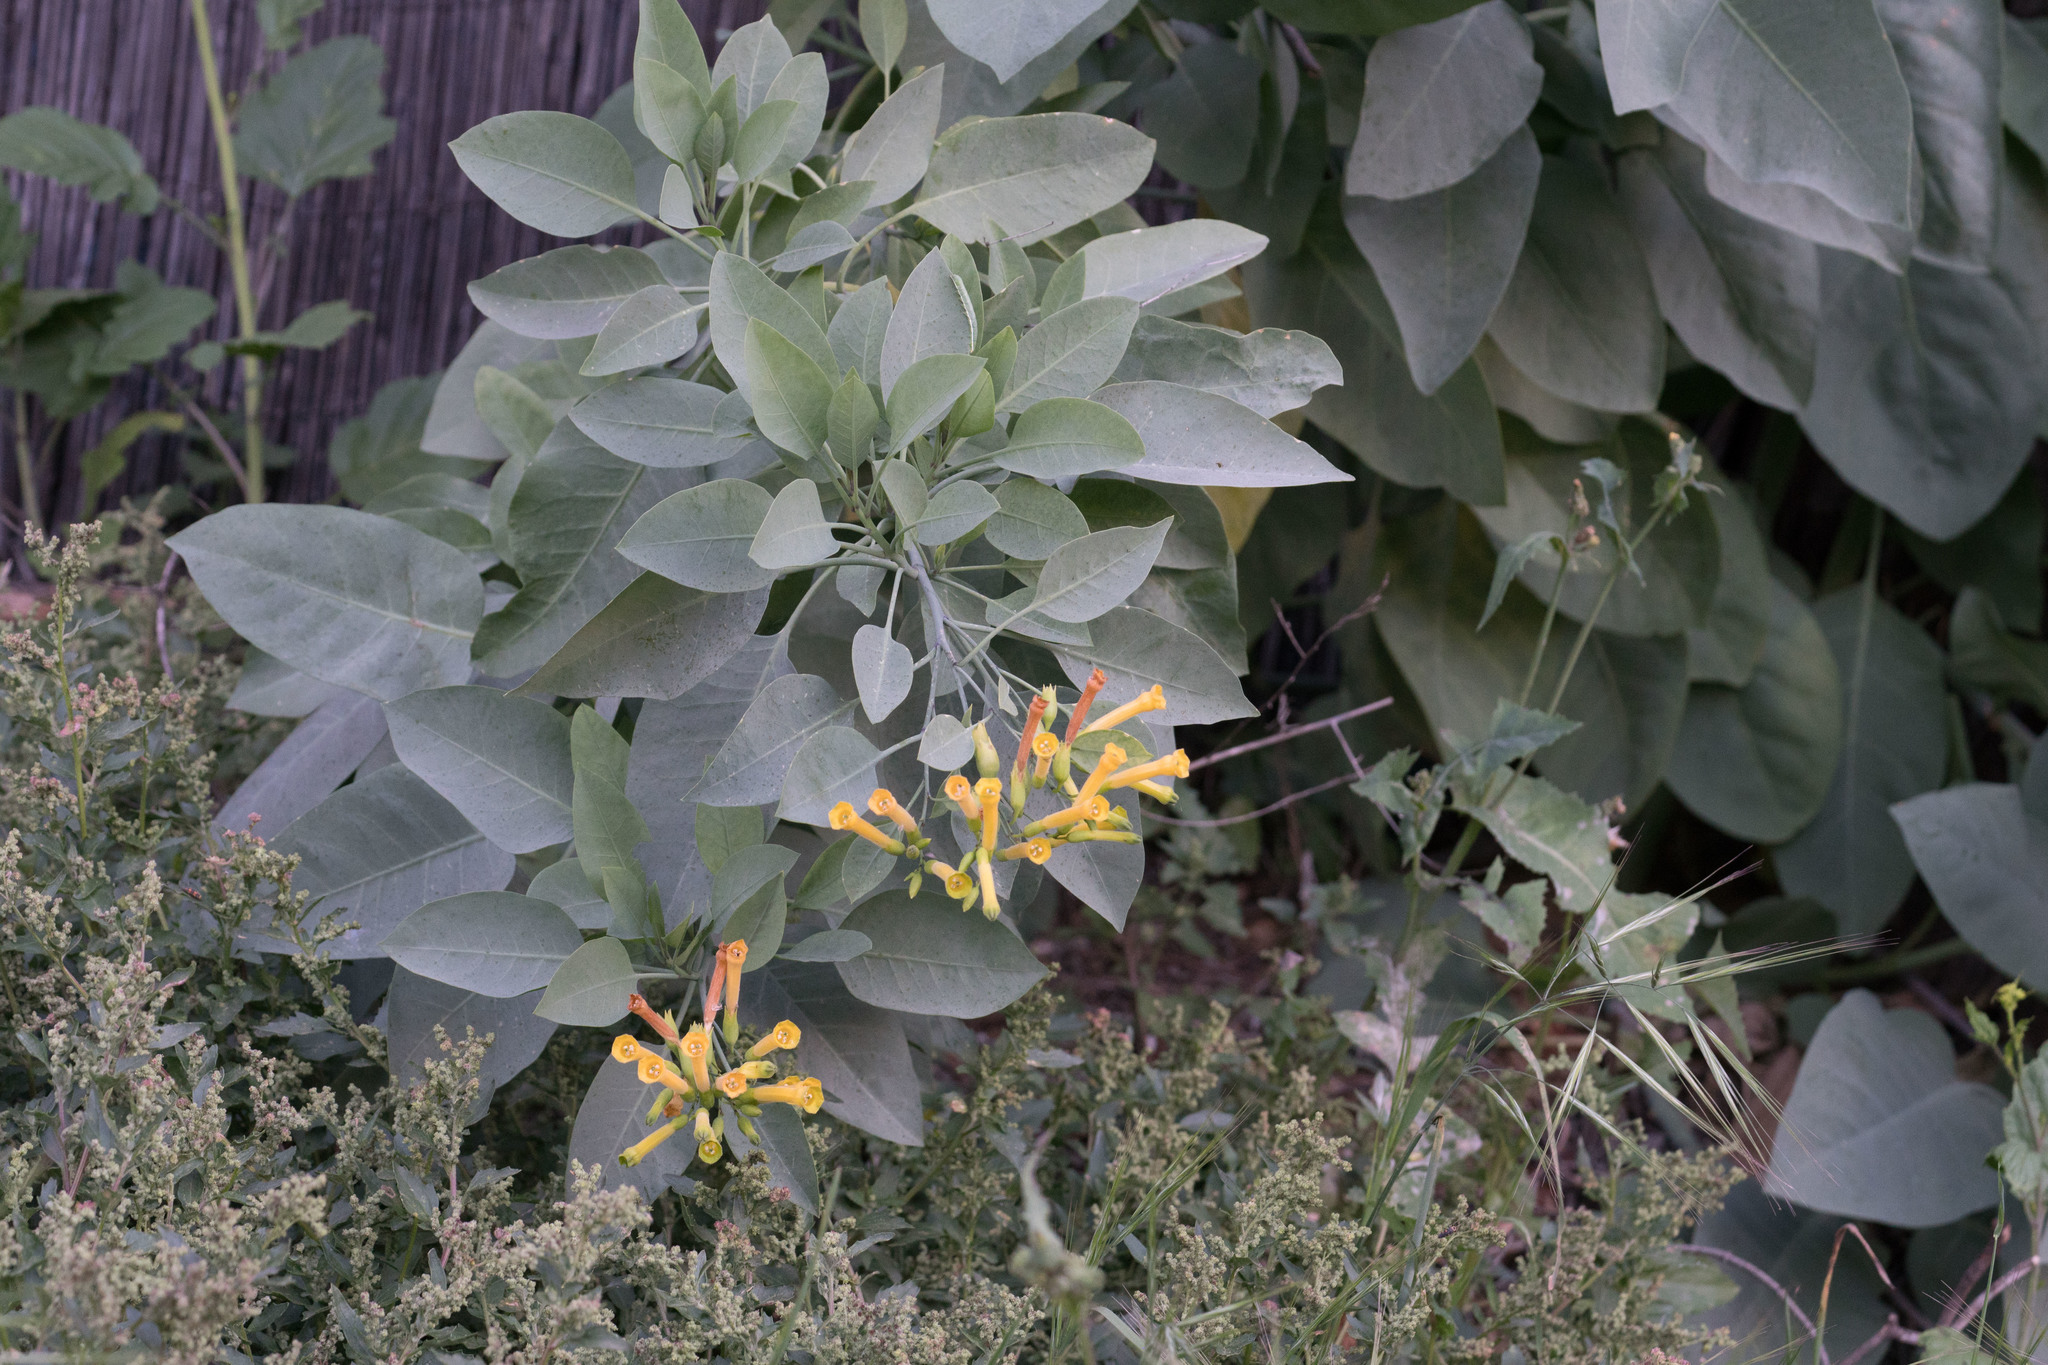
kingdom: Plantae
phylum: Tracheophyta
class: Magnoliopsida
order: Solanales
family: Solanaceae
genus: Nicotiana
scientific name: Nicotiana glauca
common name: Tree tobacco
